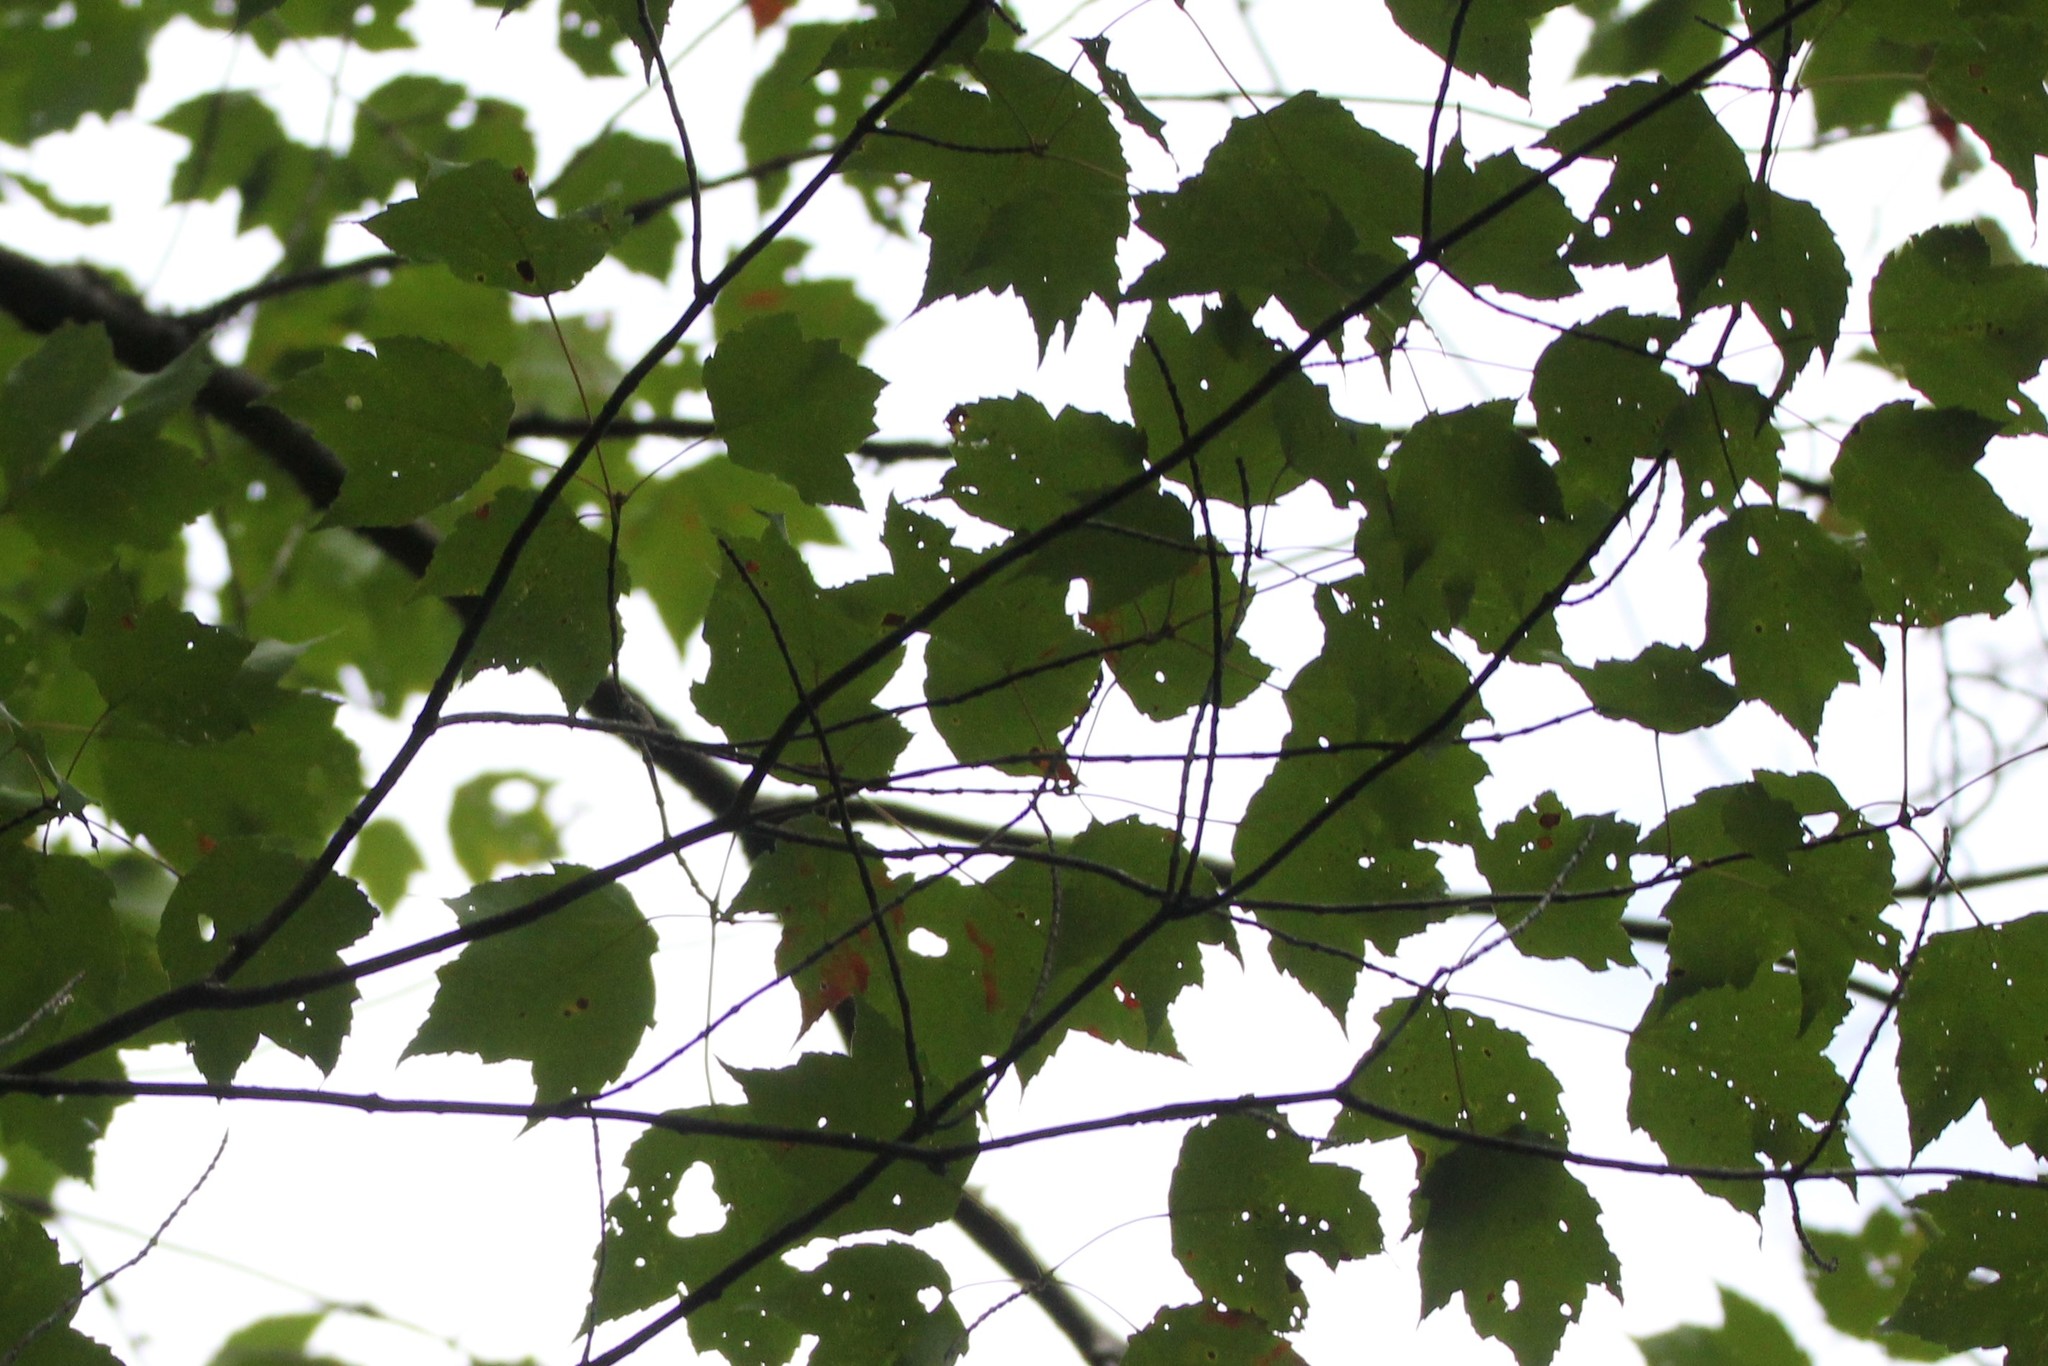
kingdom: Plantae
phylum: Tracheophyta
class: Magnoliopsida
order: Sapindales
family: Sapindaceae
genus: Acer
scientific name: Acer rubrum
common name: Red maple
